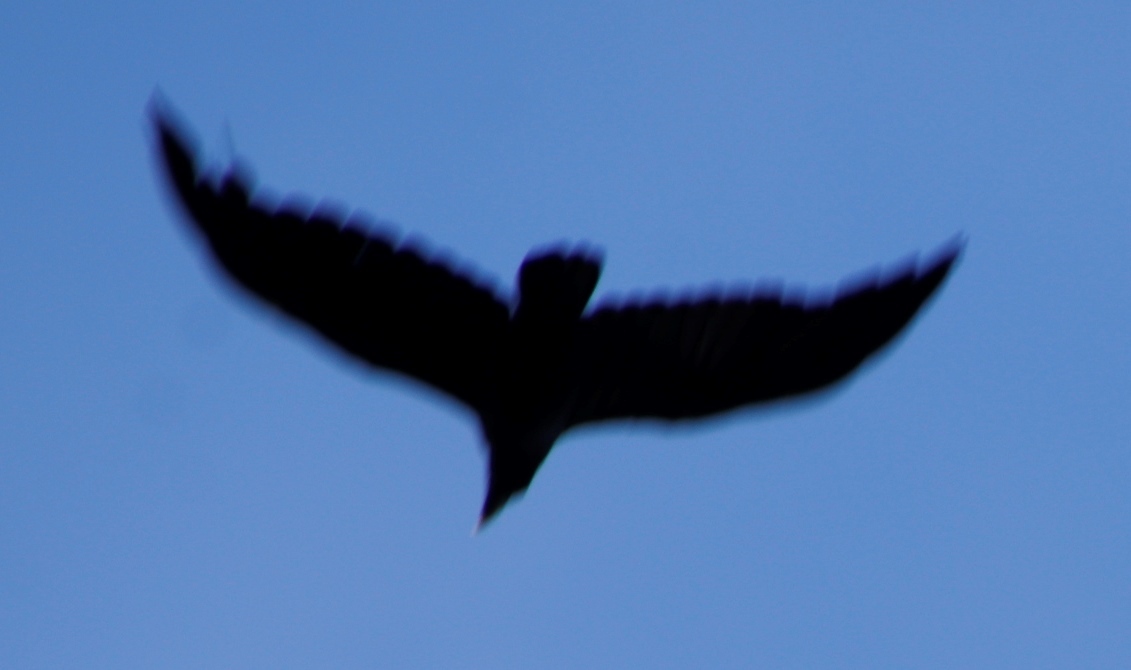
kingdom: Animalia
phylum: Chordata
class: Aves
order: Passeriformes
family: Corvidae
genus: Corvus
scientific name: Corvus albicollis
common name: White-necked raven
